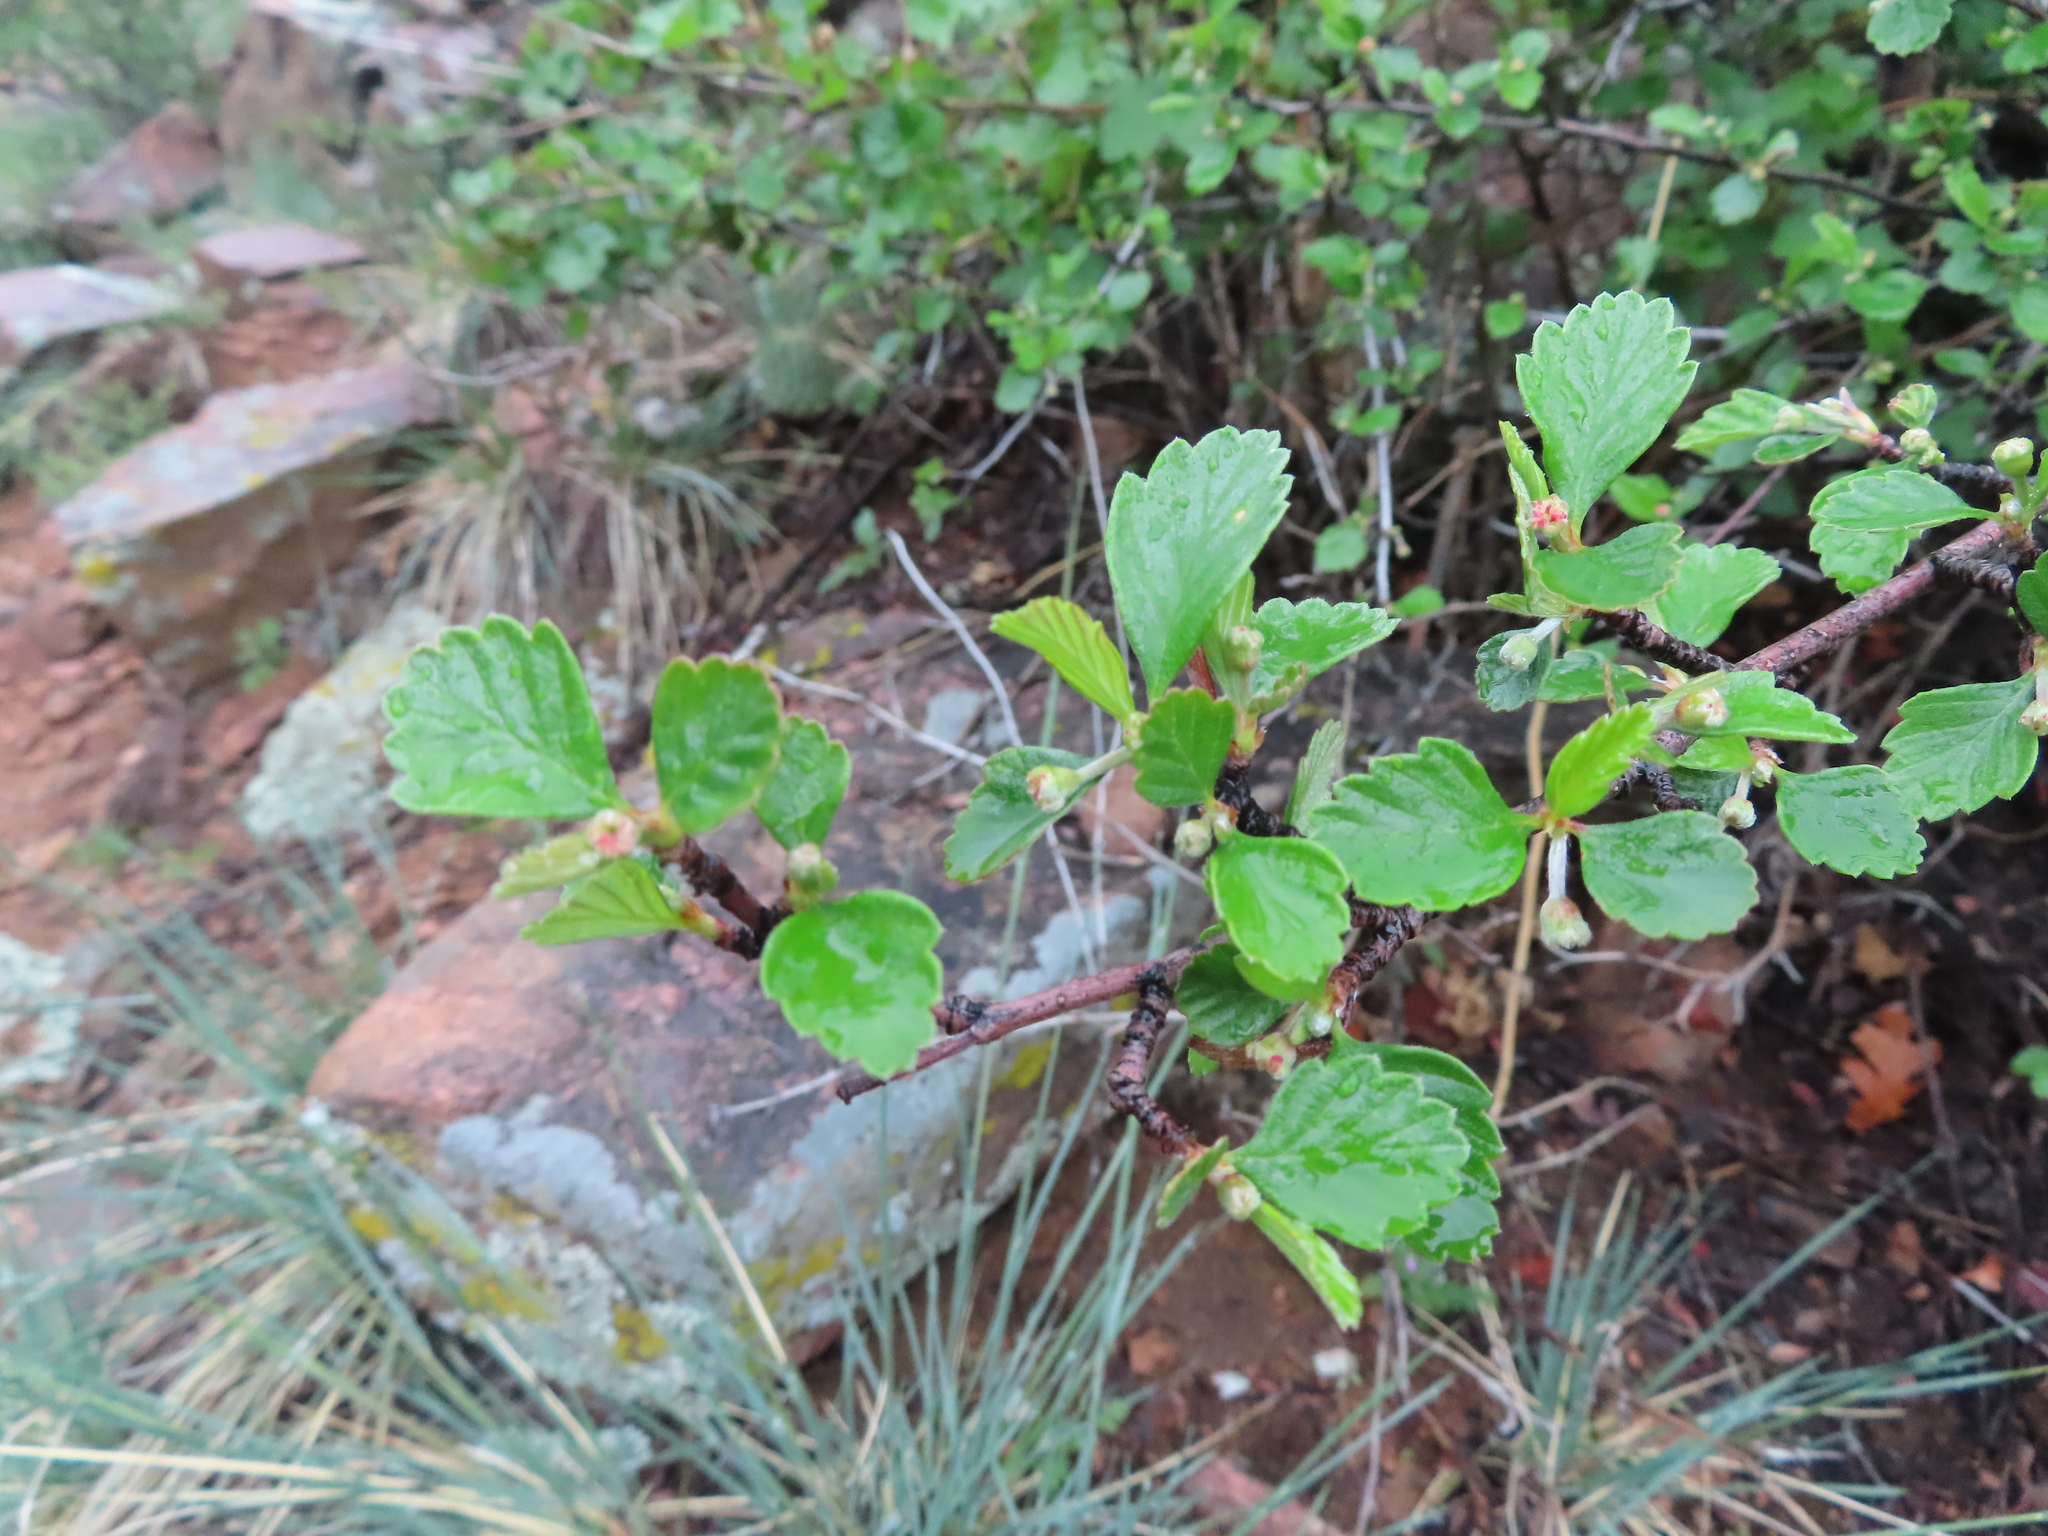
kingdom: Plantae
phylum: Tracheophyta
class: Magnoliopsida
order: Rosales
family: Rosaceae
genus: Cercocarpus
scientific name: Cercocarpus montanus
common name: Alder-leaf cercocarpus
